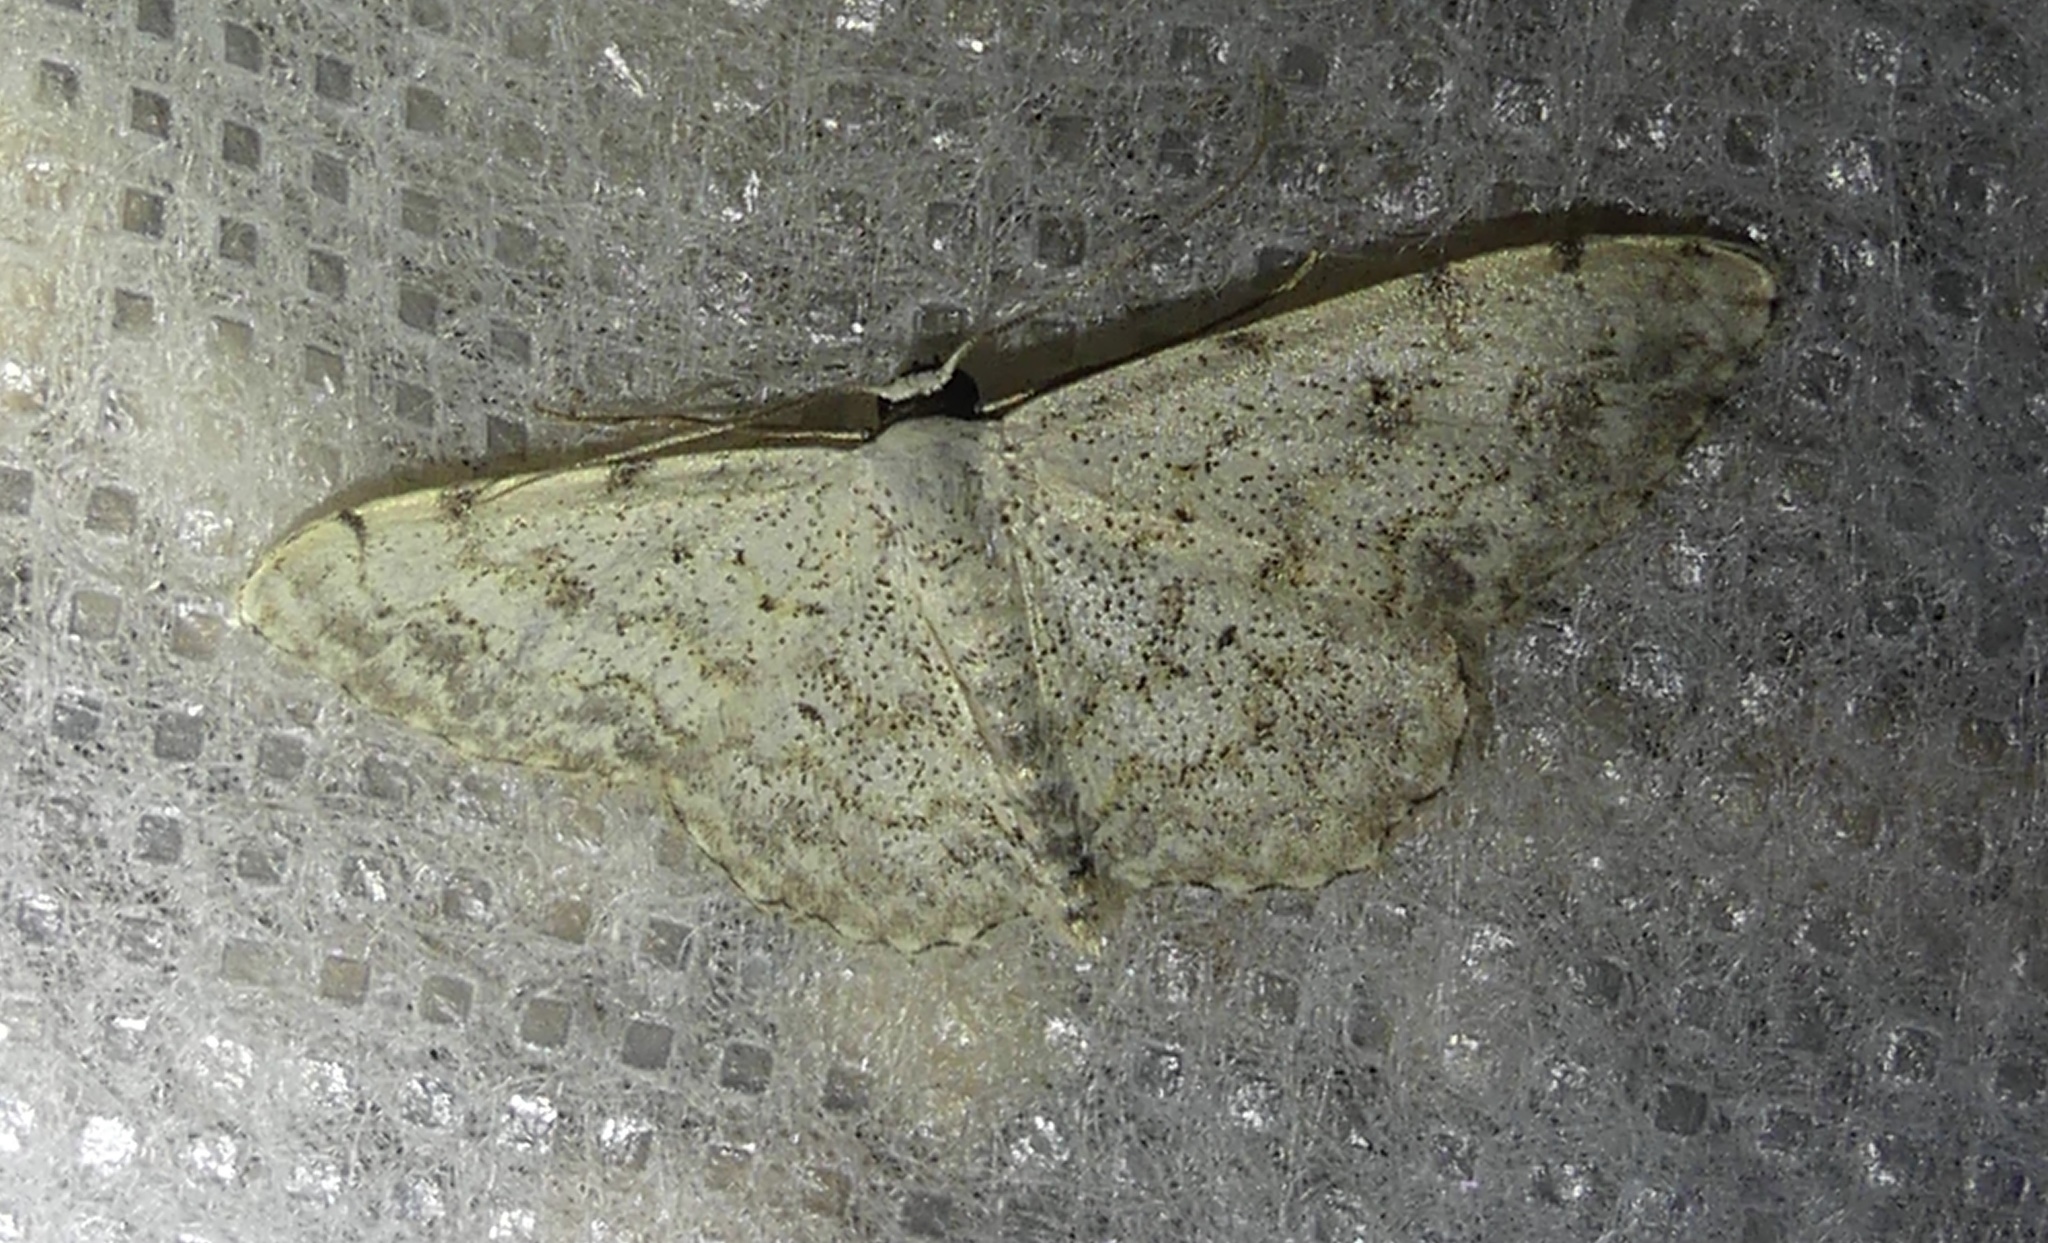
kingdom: Animalia
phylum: Arthropoda
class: Insecta
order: Lepidoptera
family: Geometridae
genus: Scopula
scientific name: Scopula submutata
